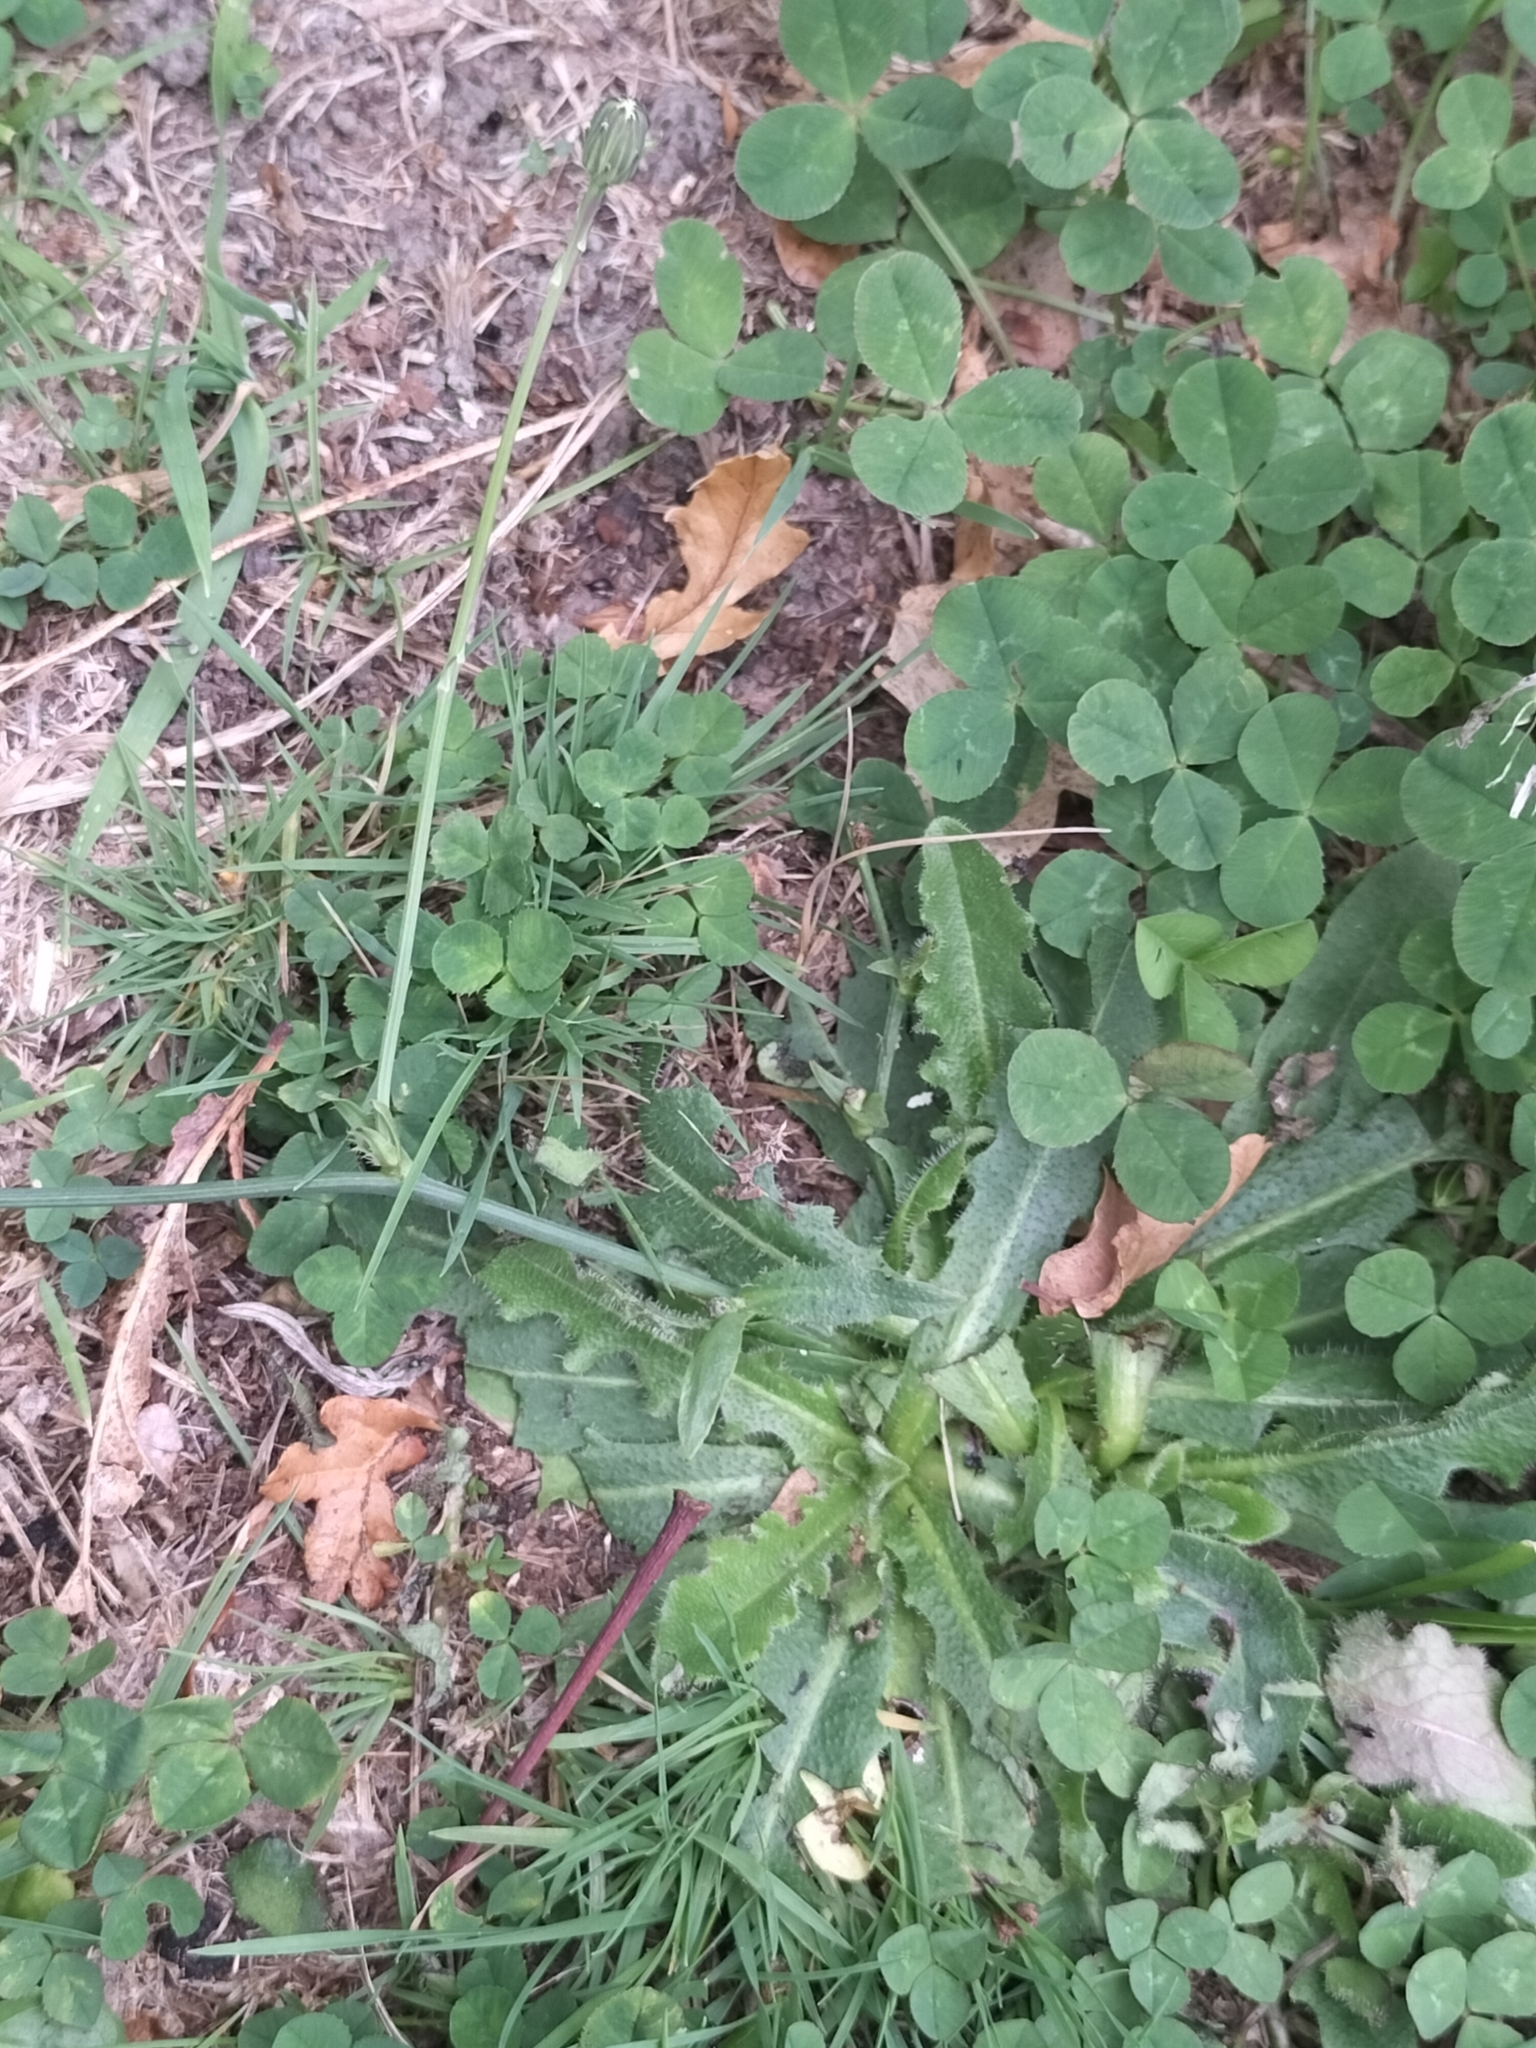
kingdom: Plantae
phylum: Tracheophyta
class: Magnoliopsida
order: Asterales
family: Asteraceae
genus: Hypochaeris
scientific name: Hypochaeris radicata
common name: Flatweed
